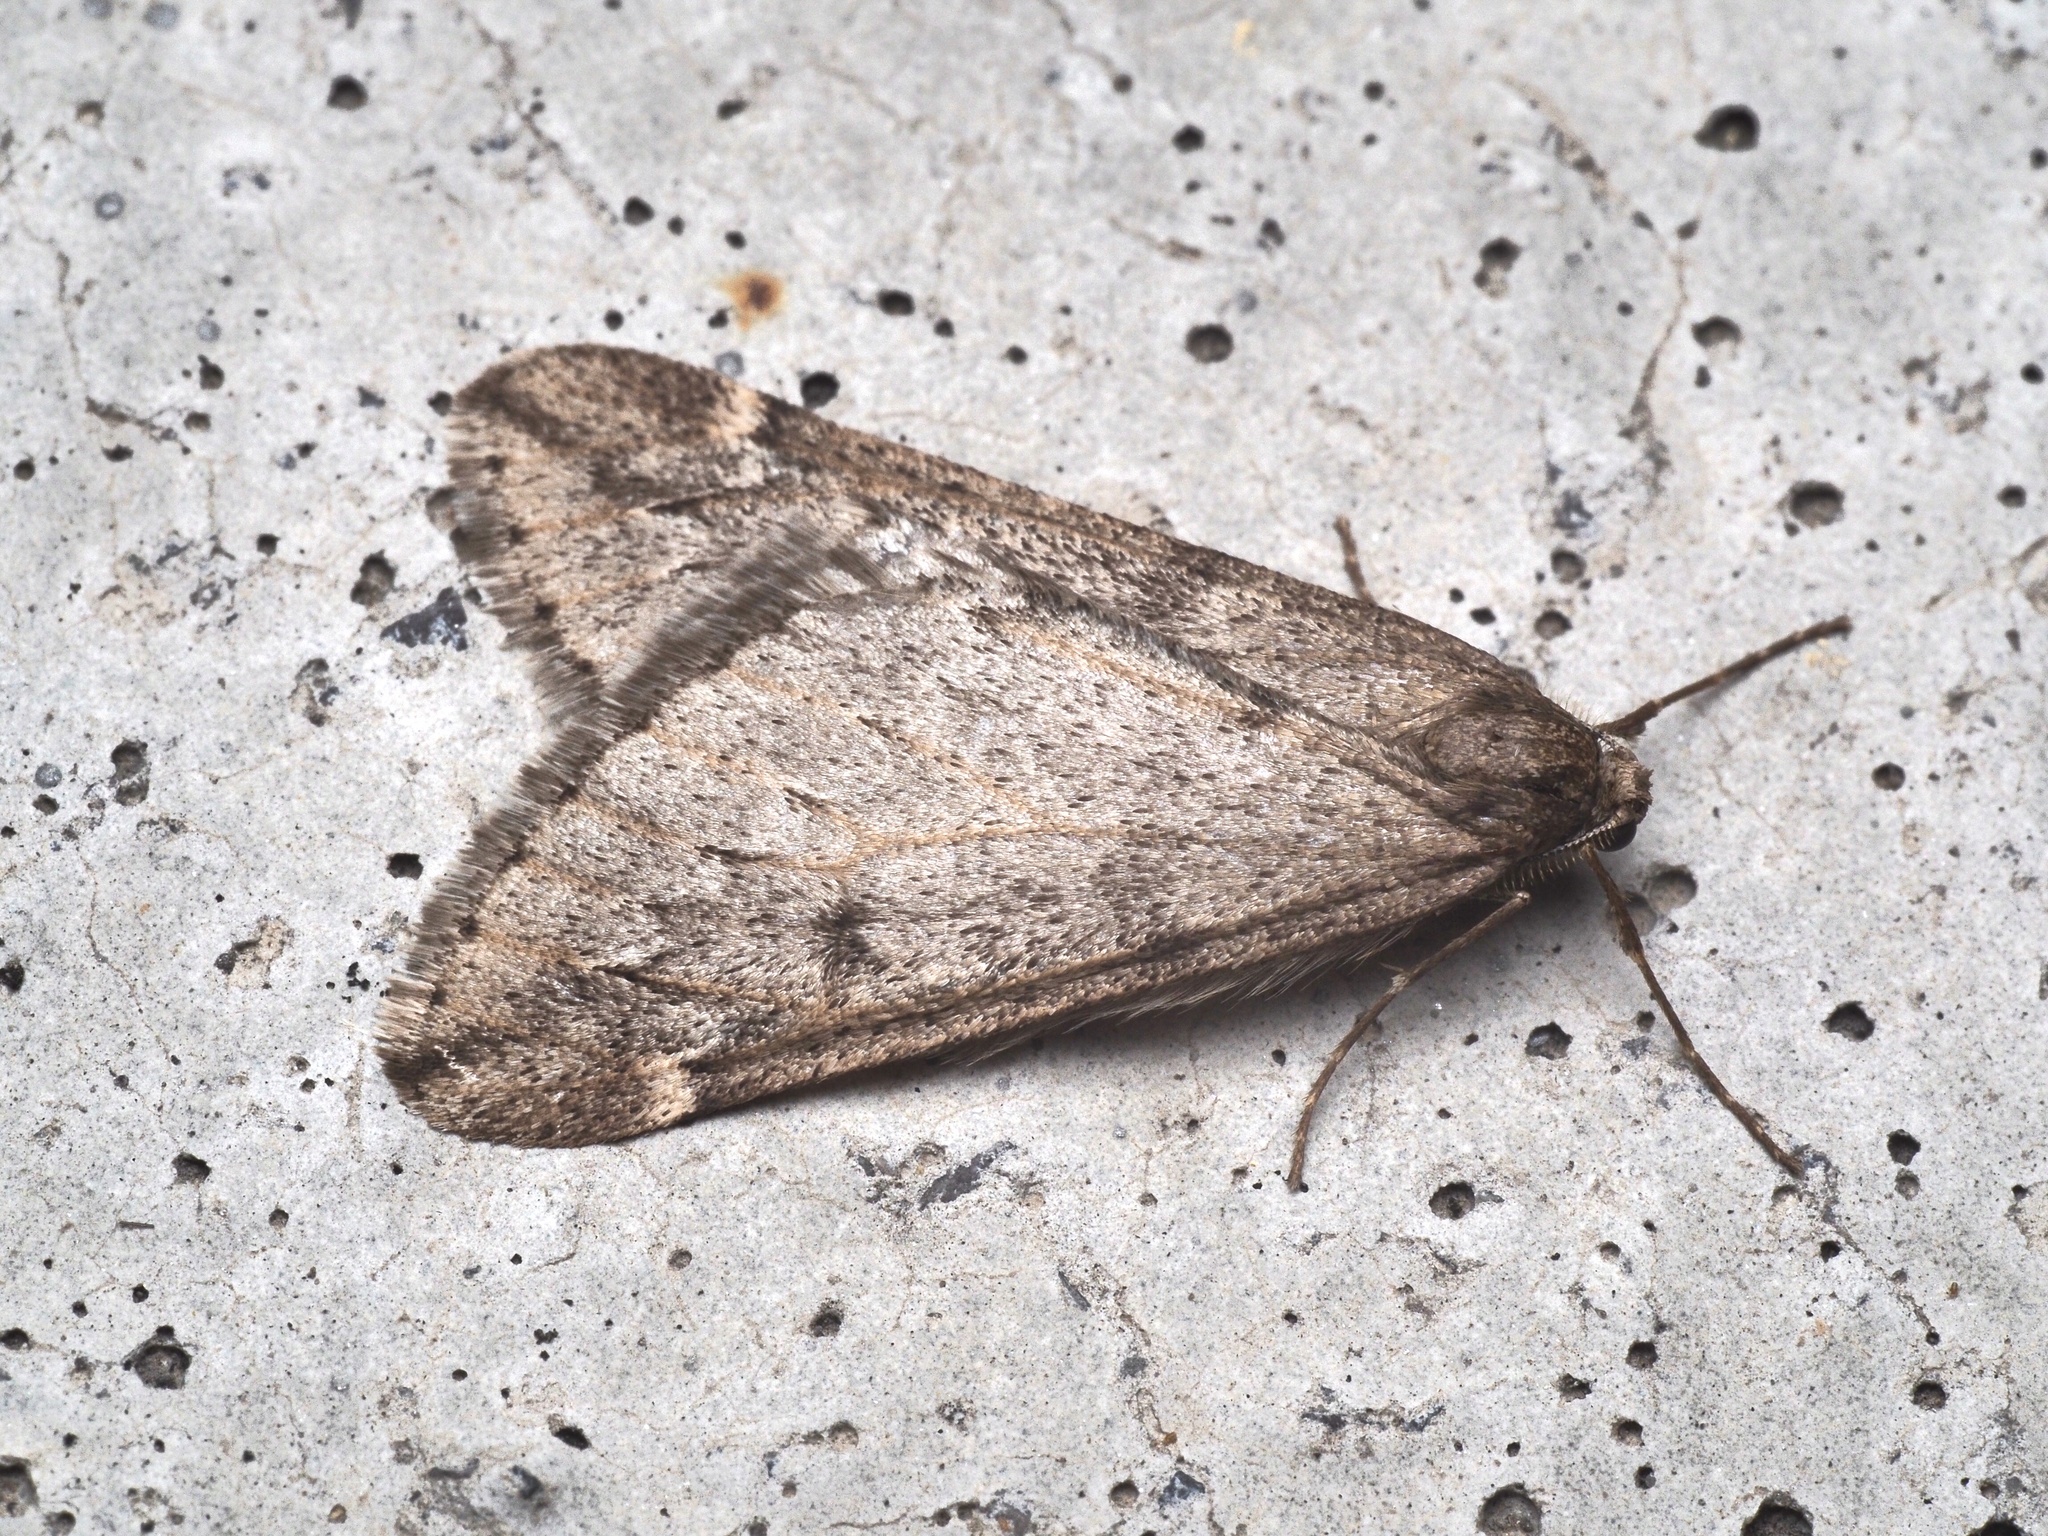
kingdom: Animalia
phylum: Arthropoda
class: Insecta
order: Lepidoptera
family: Geometridae
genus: Alsophila
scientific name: Alsophila aescularia
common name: March moth
